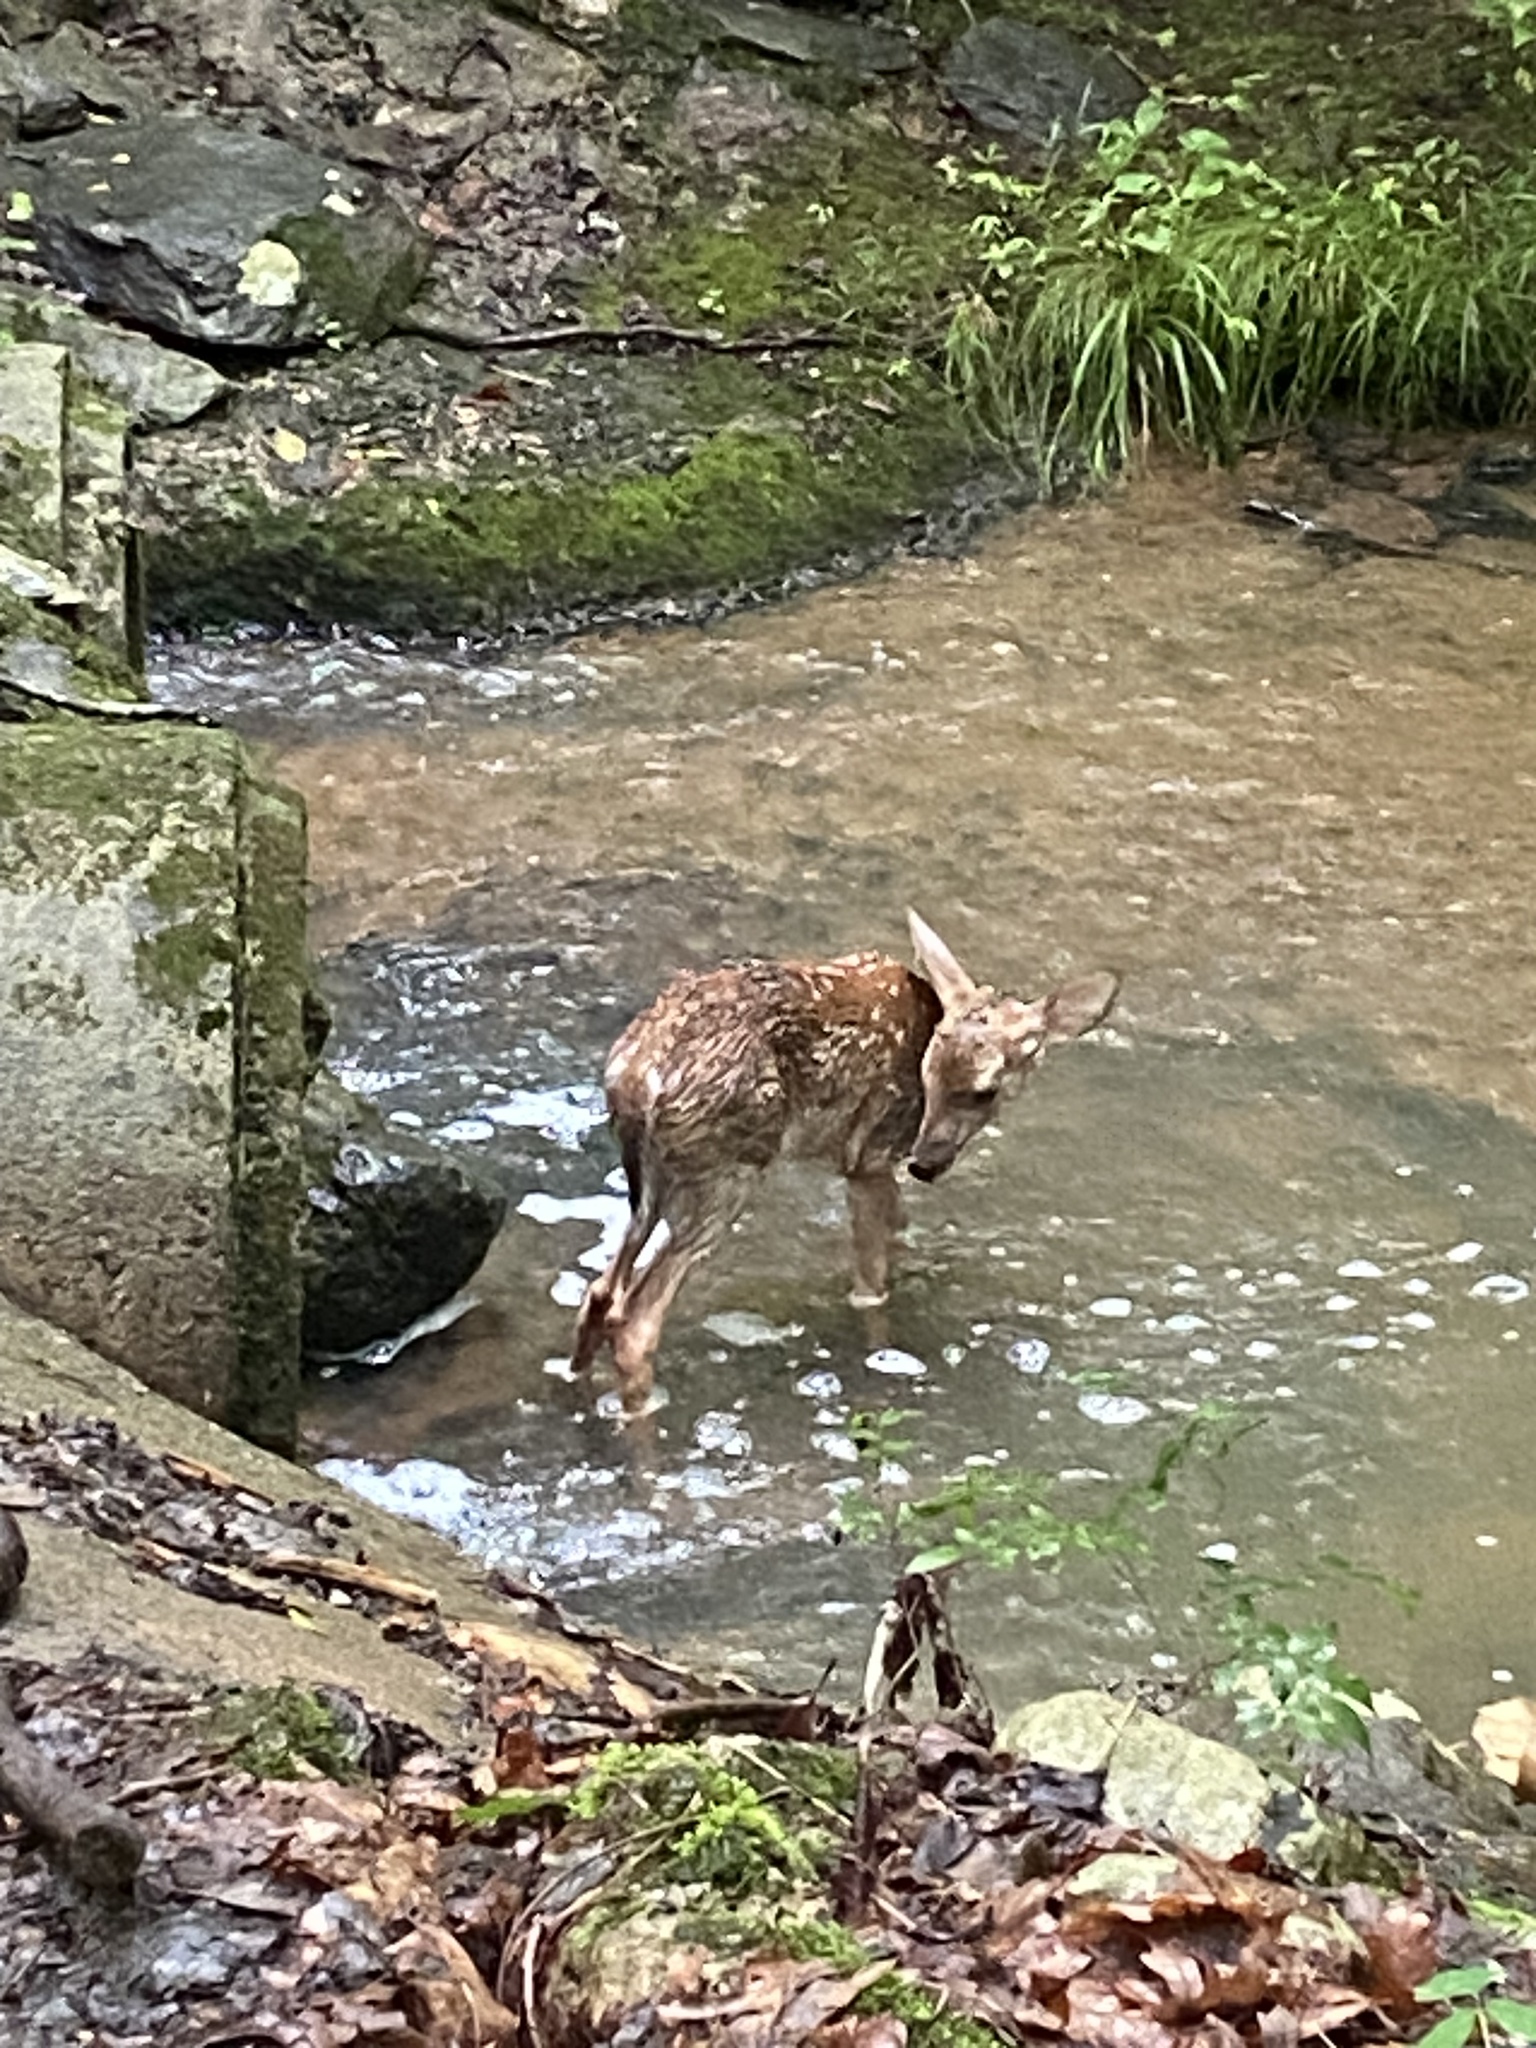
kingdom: Animalia
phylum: Chordata
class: Mammalia
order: Artiodactyla
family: Cervidae
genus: Odocoileus
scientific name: Odocoileus virginianus
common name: White-tailed deer
